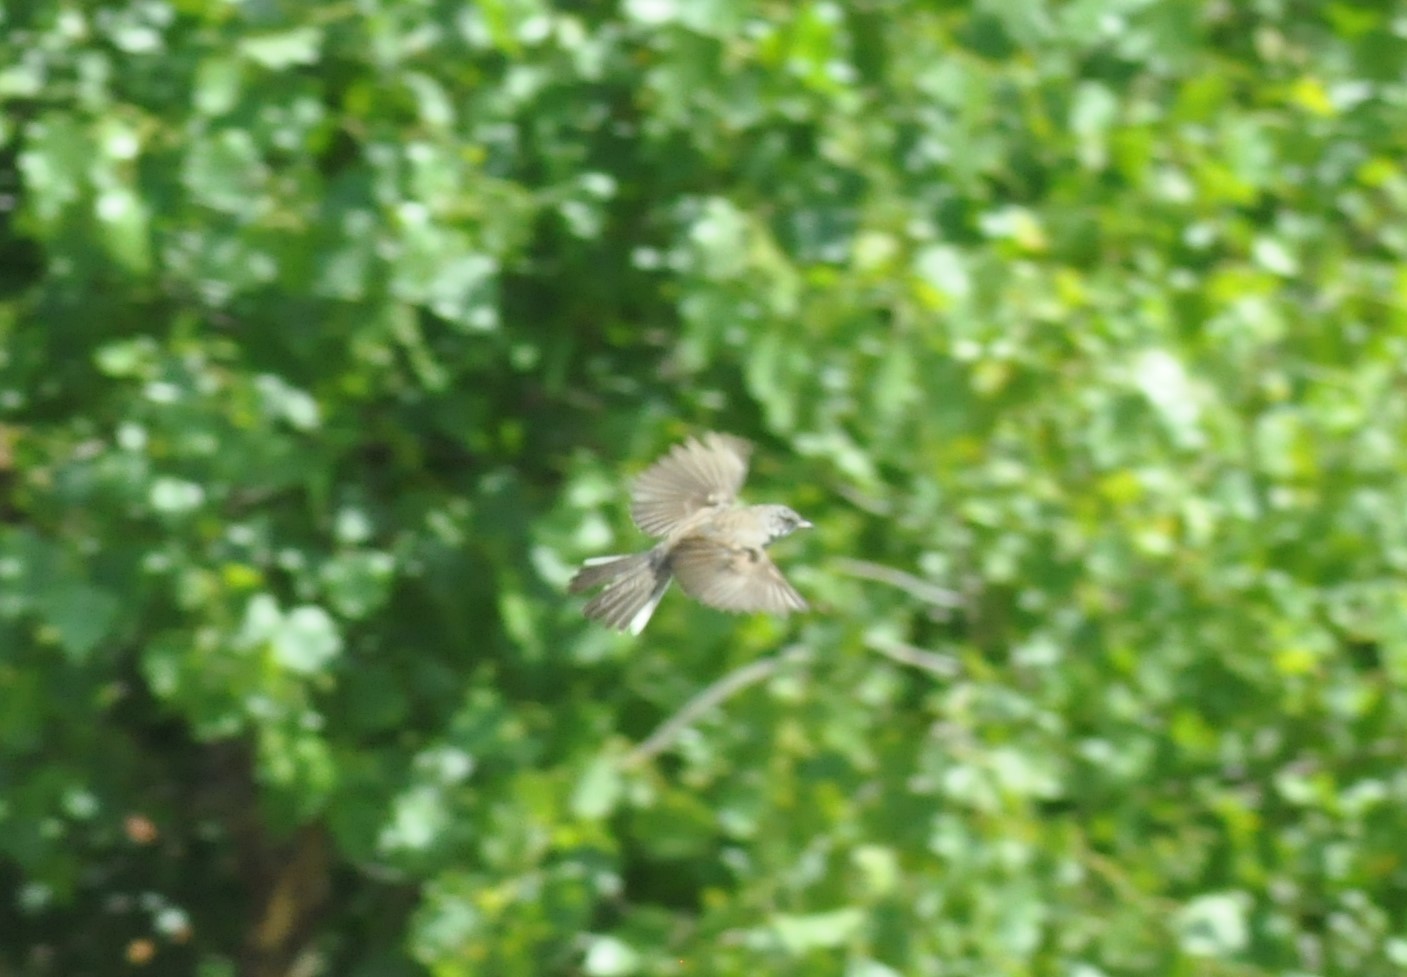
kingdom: Animalia
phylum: Chordata
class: Aves
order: Passeriformes
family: Sylviidae
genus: Sylvia
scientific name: Sylvia curruca
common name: Lesser whitethroat
